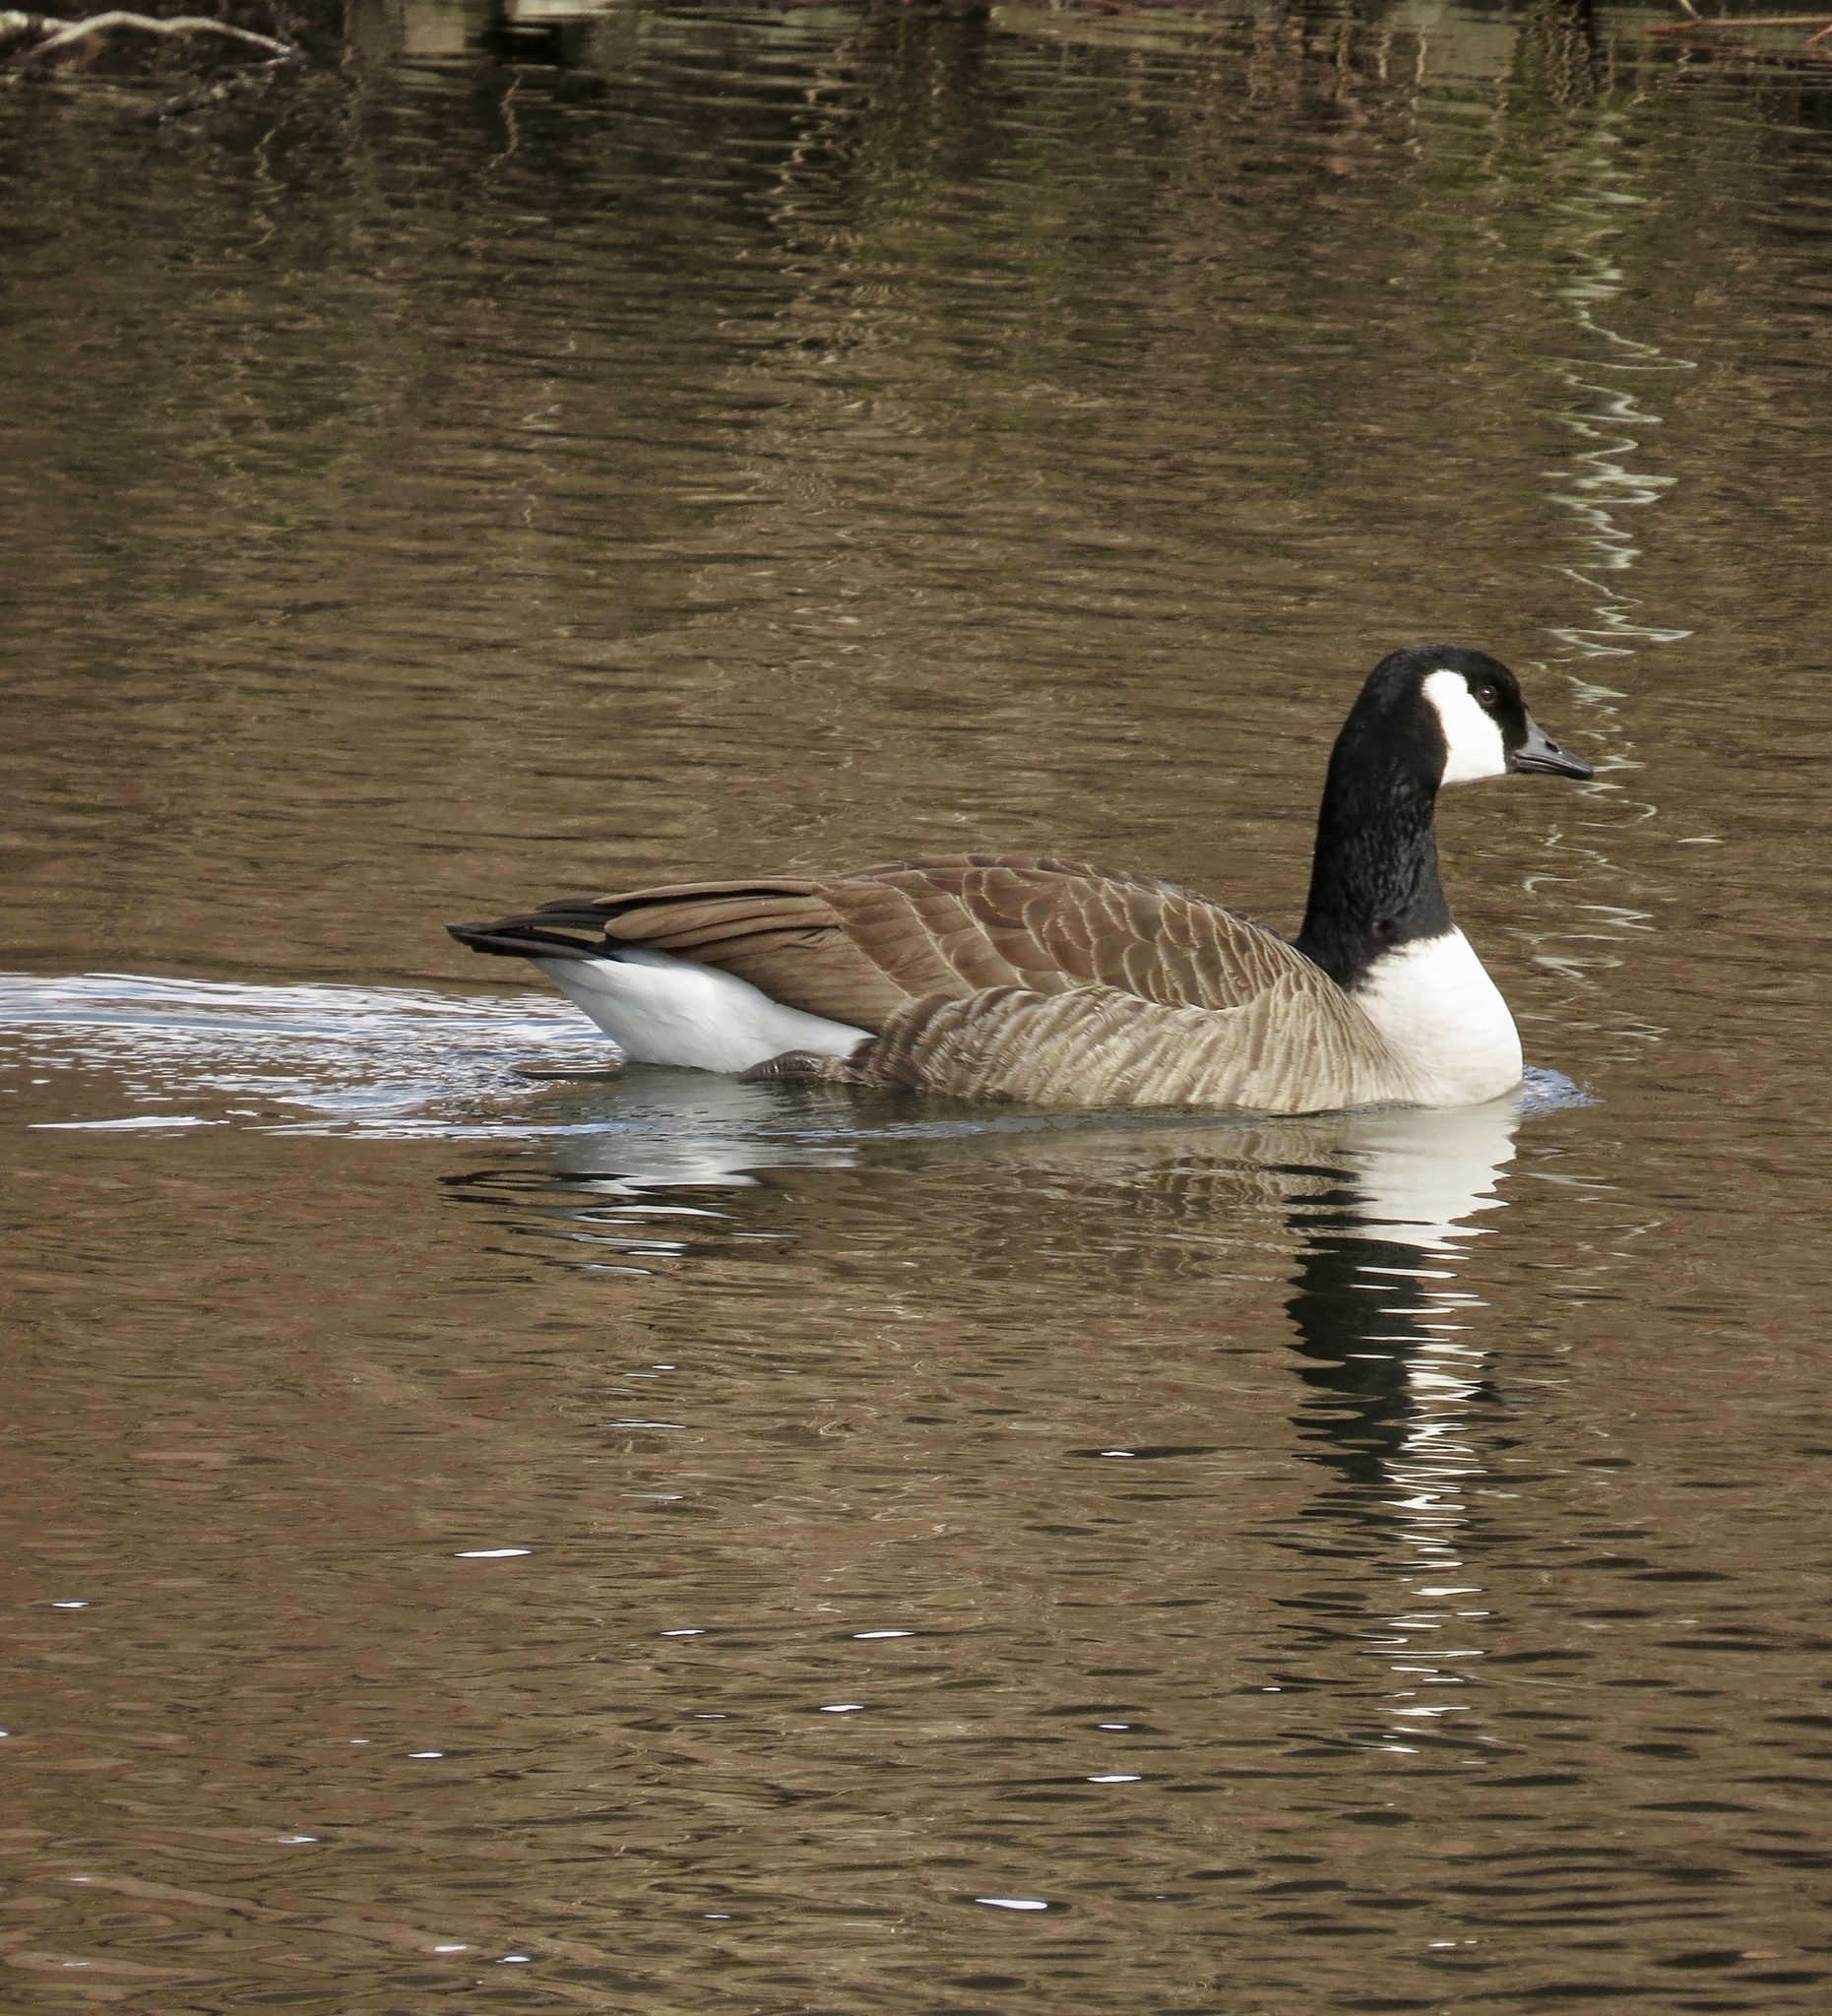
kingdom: Animalia
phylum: Chordata
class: Aves
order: Anseriformes
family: Anatidae
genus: Branta
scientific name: Branta canadensis
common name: Canada goose
